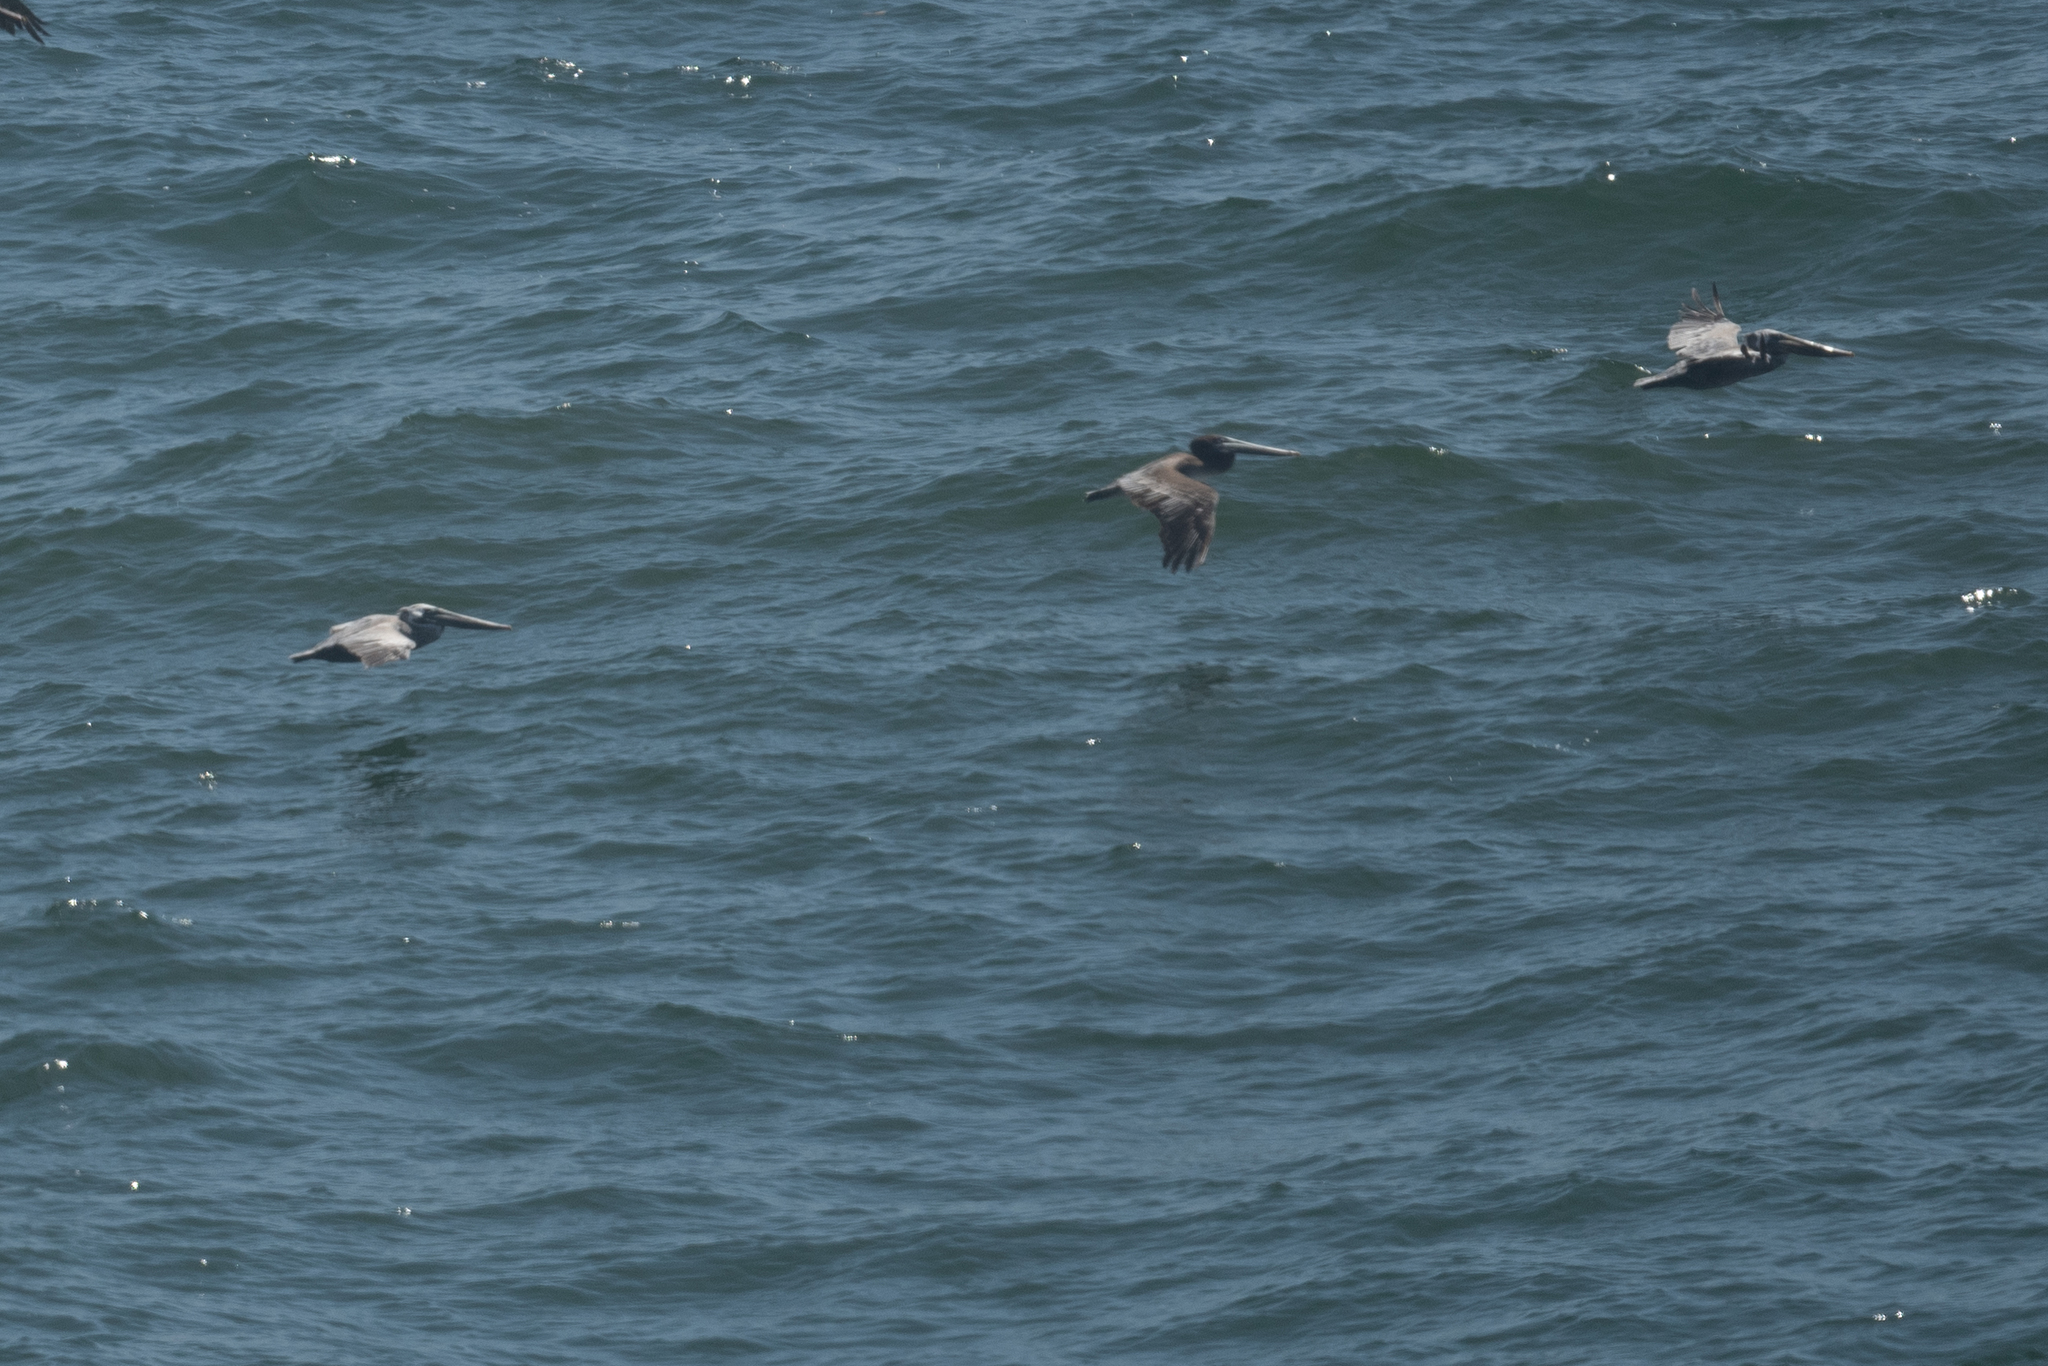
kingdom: Animalia
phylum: Chordata
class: Aves
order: Pelecaniformes
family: Pelecanidae
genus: Pelecanus
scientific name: Pelecanus occidentalis
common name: Brown pelican
